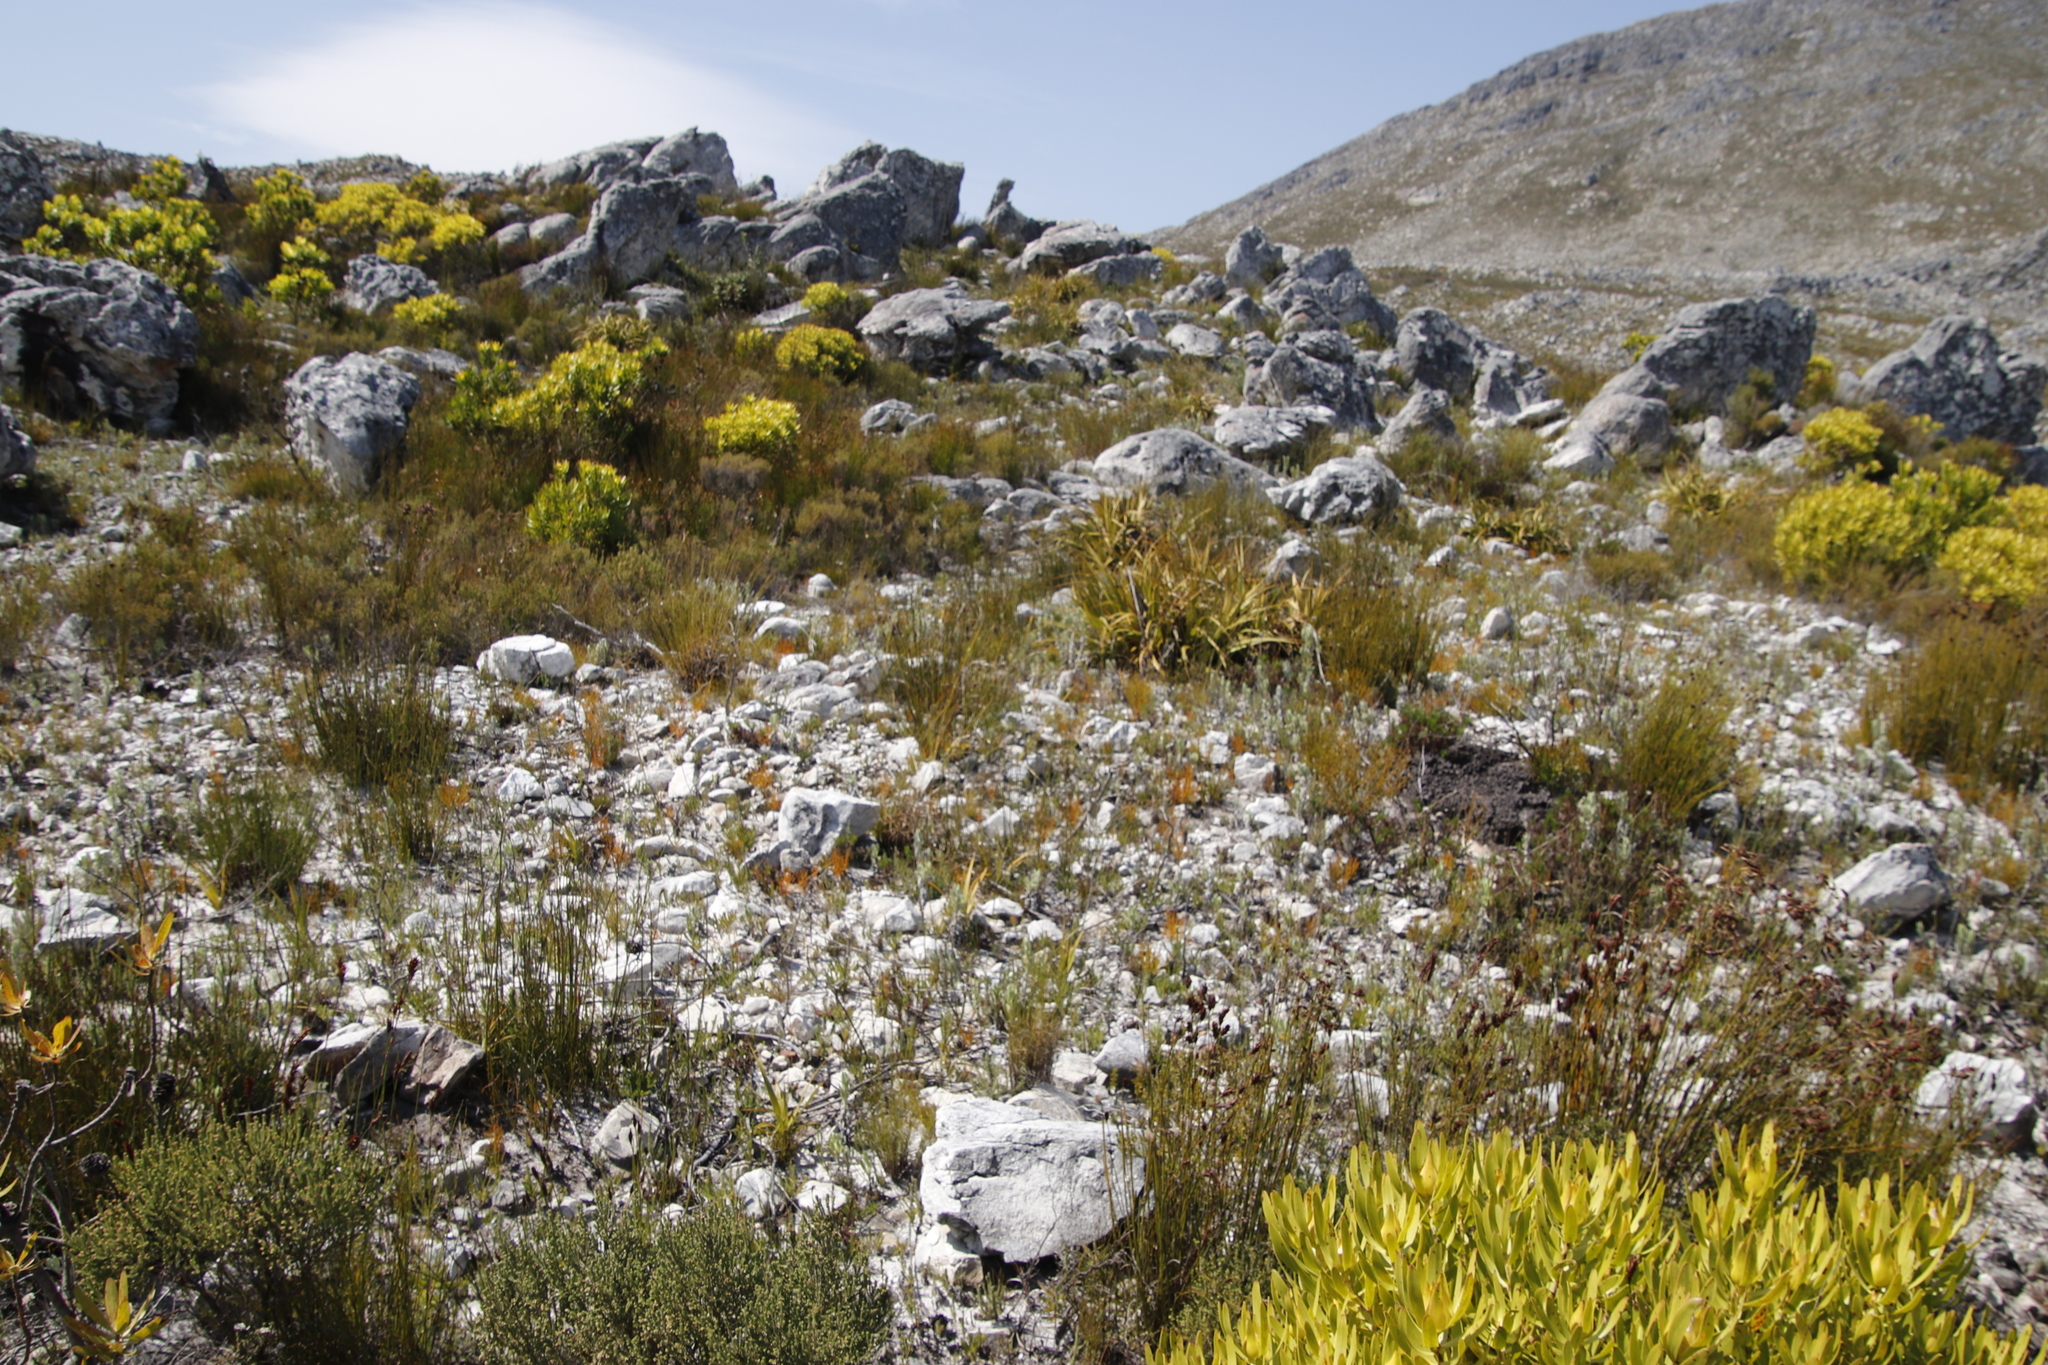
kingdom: Plantae
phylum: Tracheophyta
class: Liliopsida
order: Poales
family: Cyperaceae
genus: Tetraria
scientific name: Tetraria thermalis
